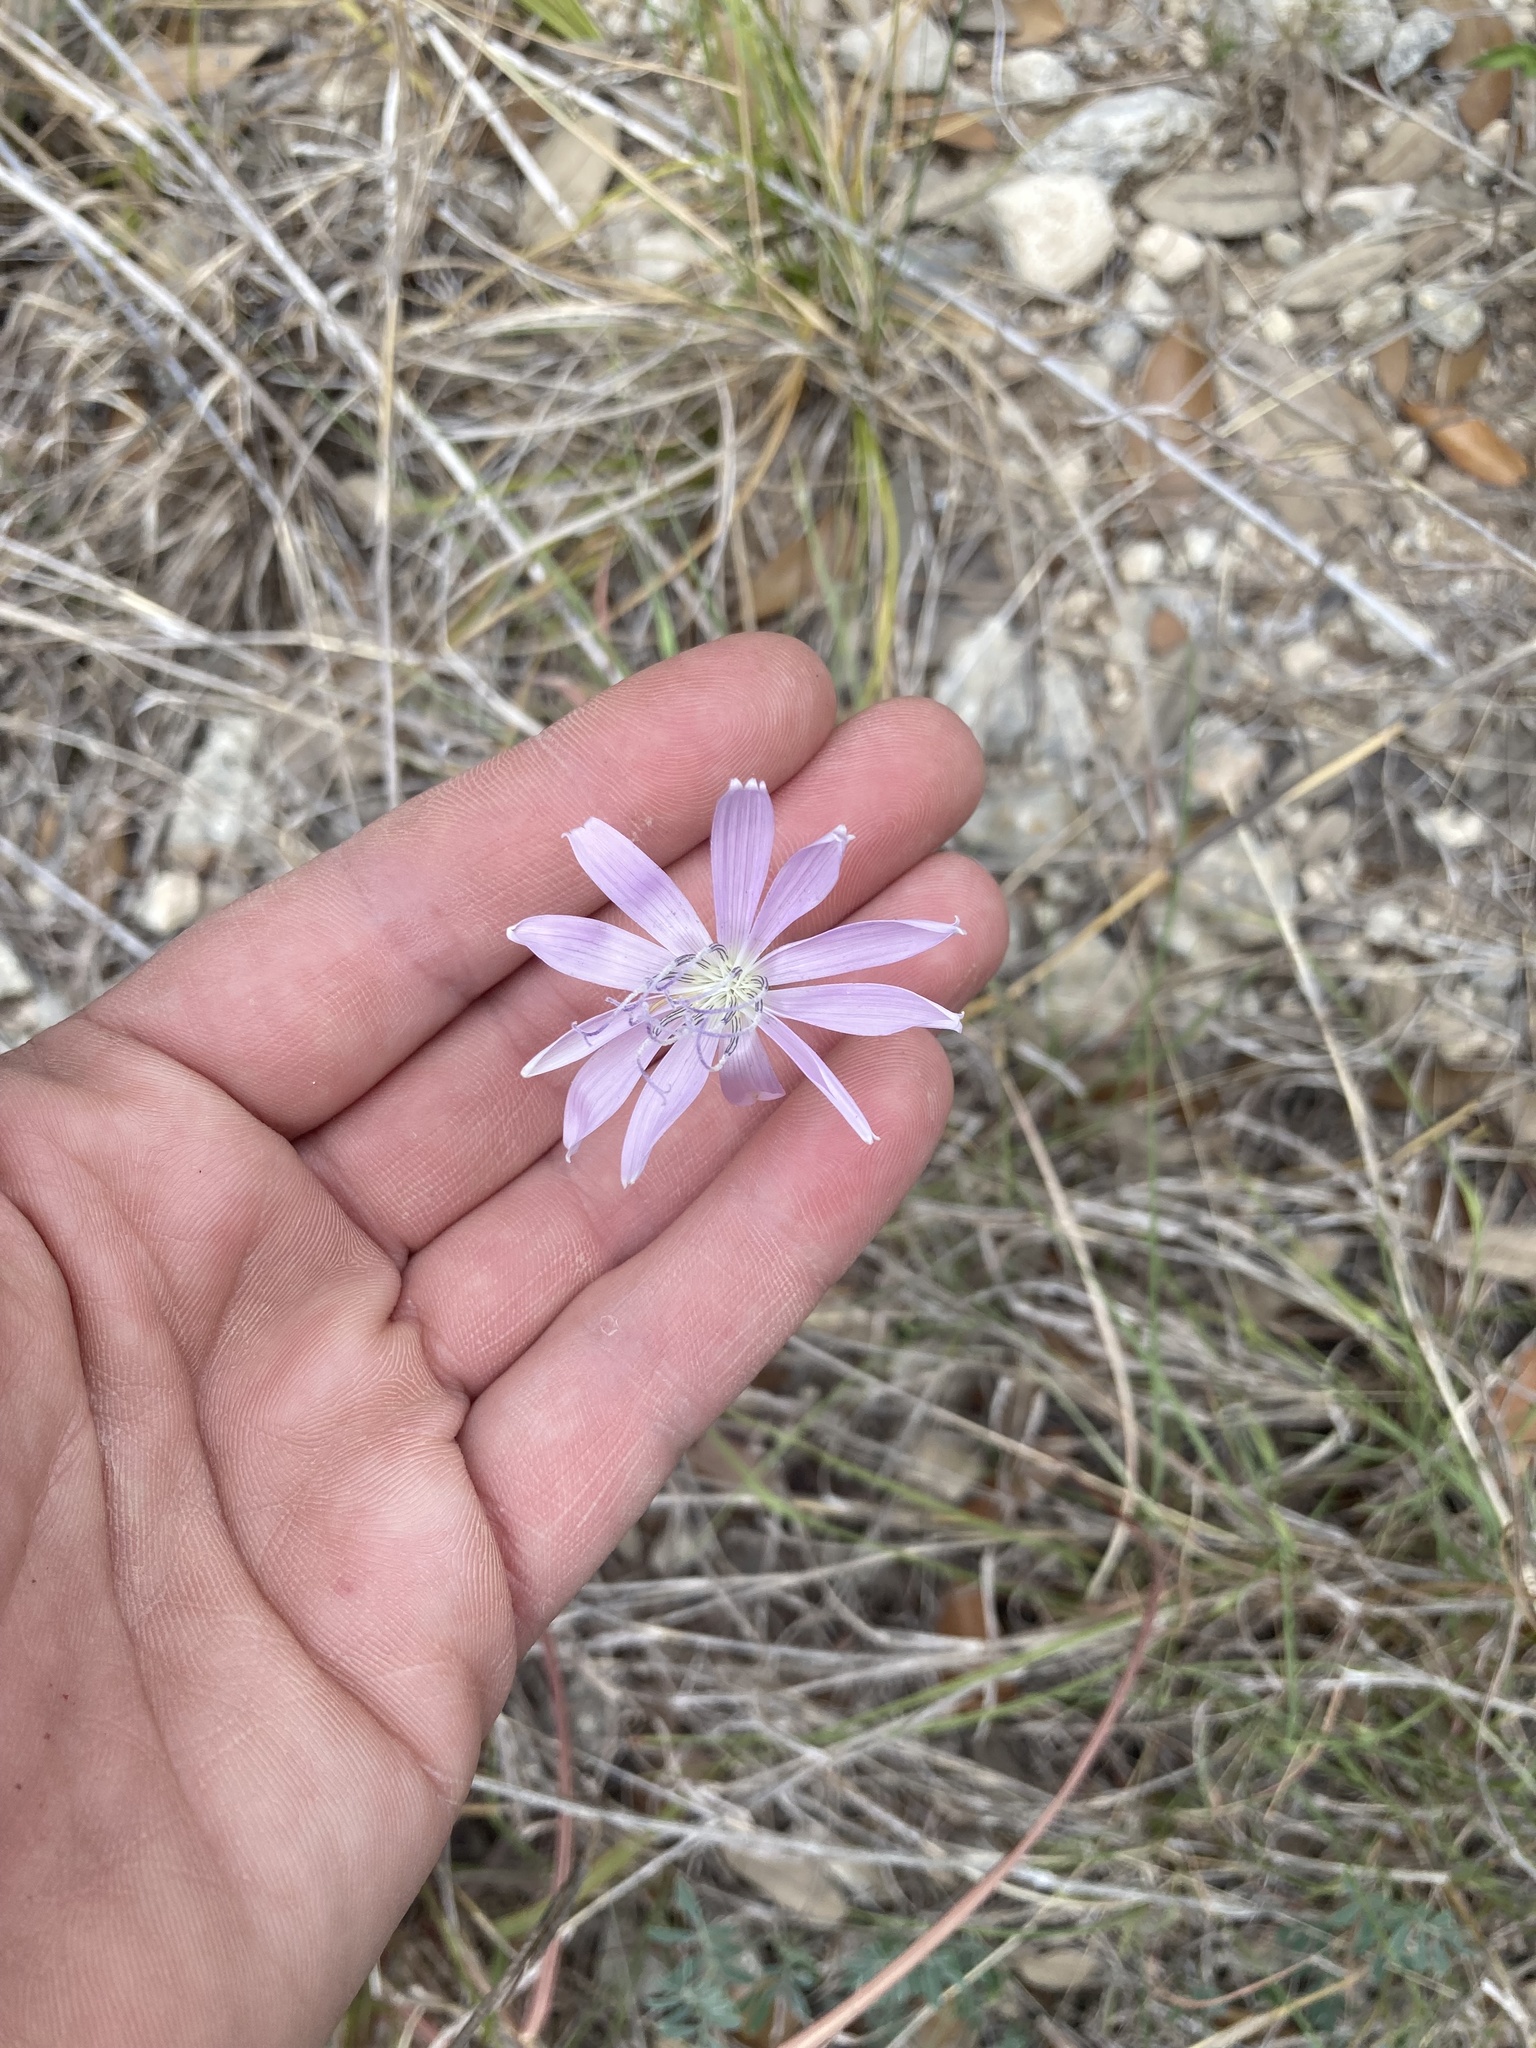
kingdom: Plantae
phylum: Tracheophyta
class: Magnoliopsida
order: Asterales
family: Asteraceae
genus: Lygodesmia
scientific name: Lygodesmia texana
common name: Texas skeleton-plant
